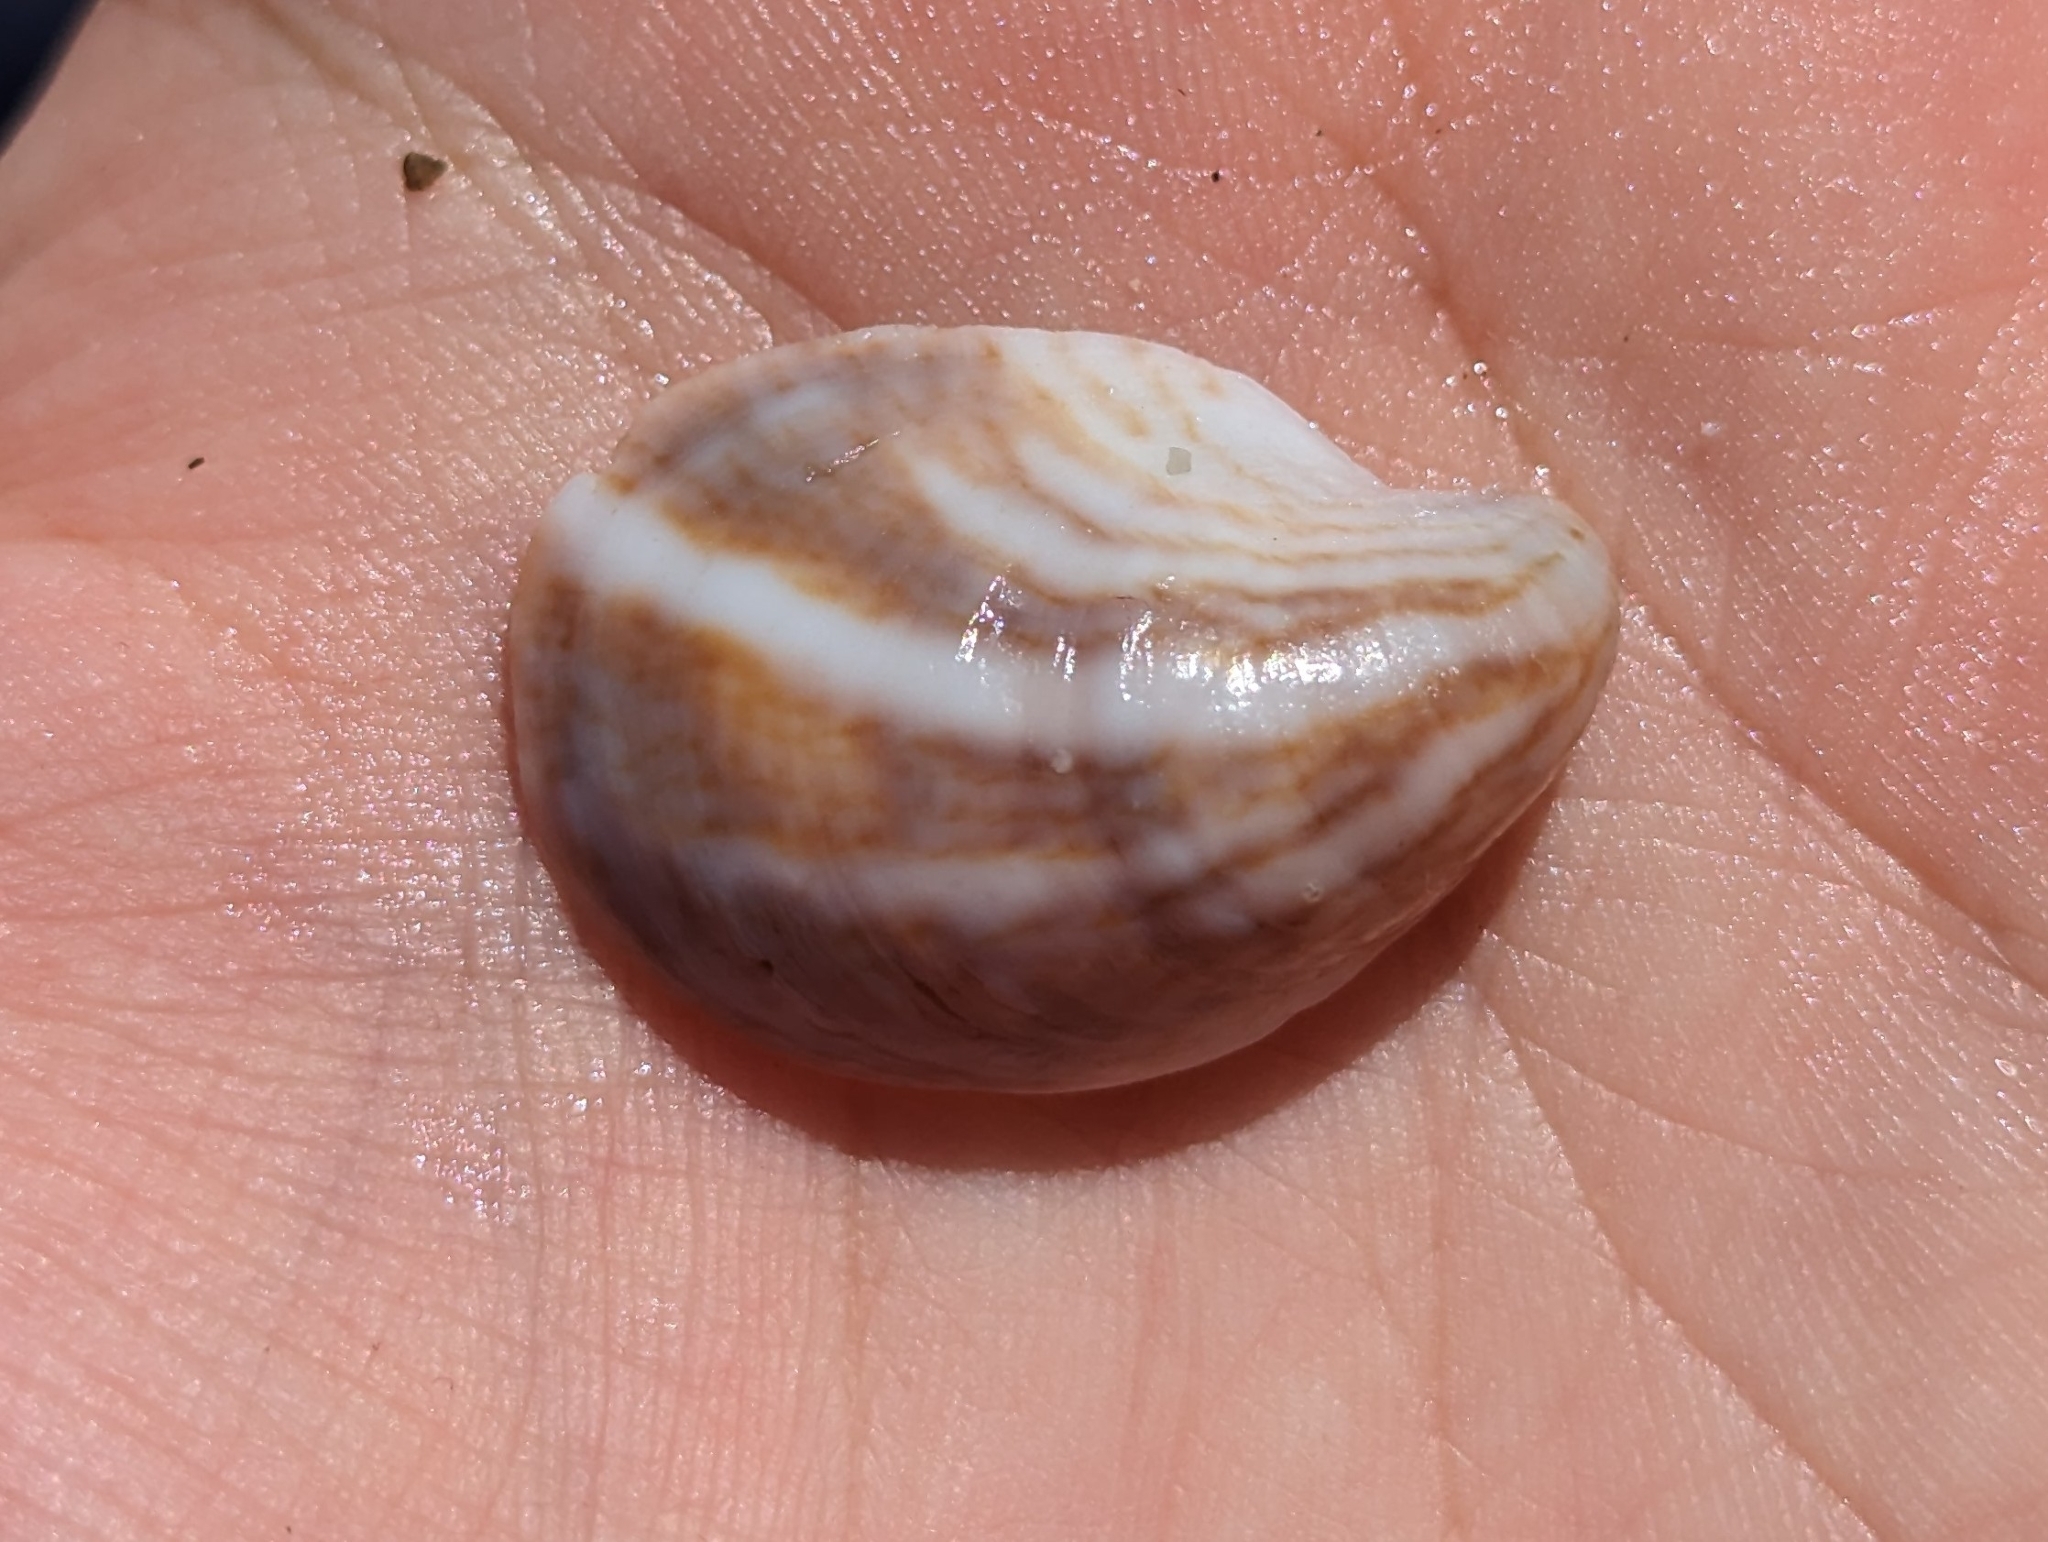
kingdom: Animalia
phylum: Mollusca
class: Gastropoda
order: Littorinimorpha
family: Calyptraeidae
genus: Crepidula
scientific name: Crepidula fornicata
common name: Slipper limpet
